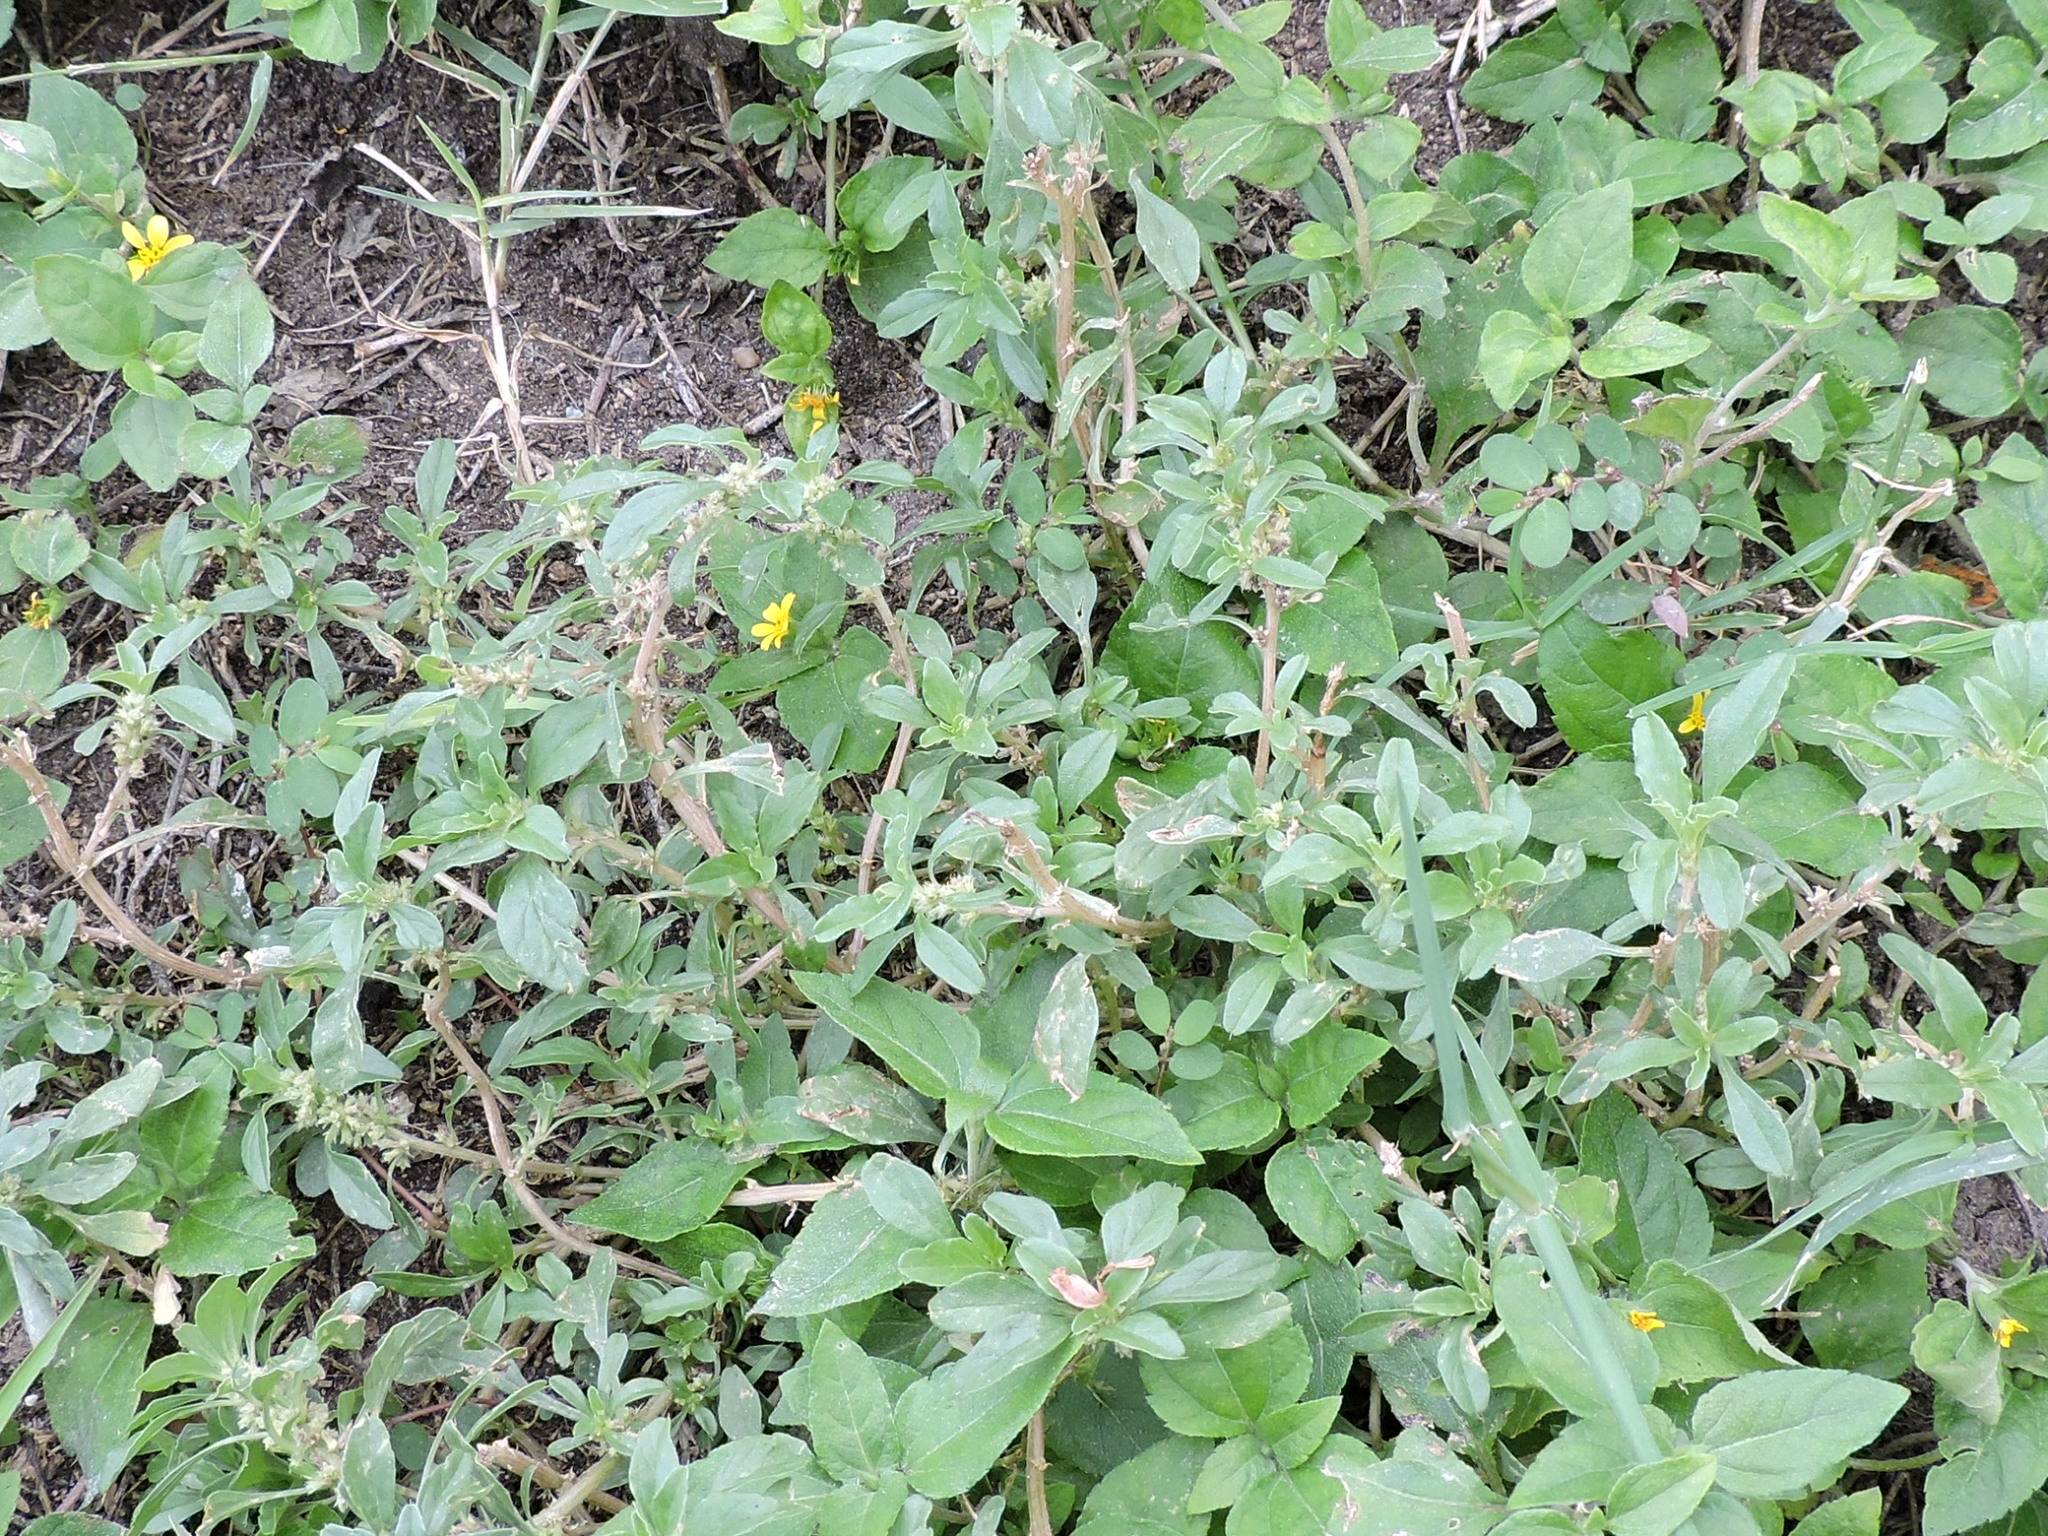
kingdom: Plantae
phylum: Tracheophyta
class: Magnoliopsida
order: Caryophyllales
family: Amaranthaceae
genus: Amaranthus
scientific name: Amaranthus blitoides
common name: Prostrate pigweed
